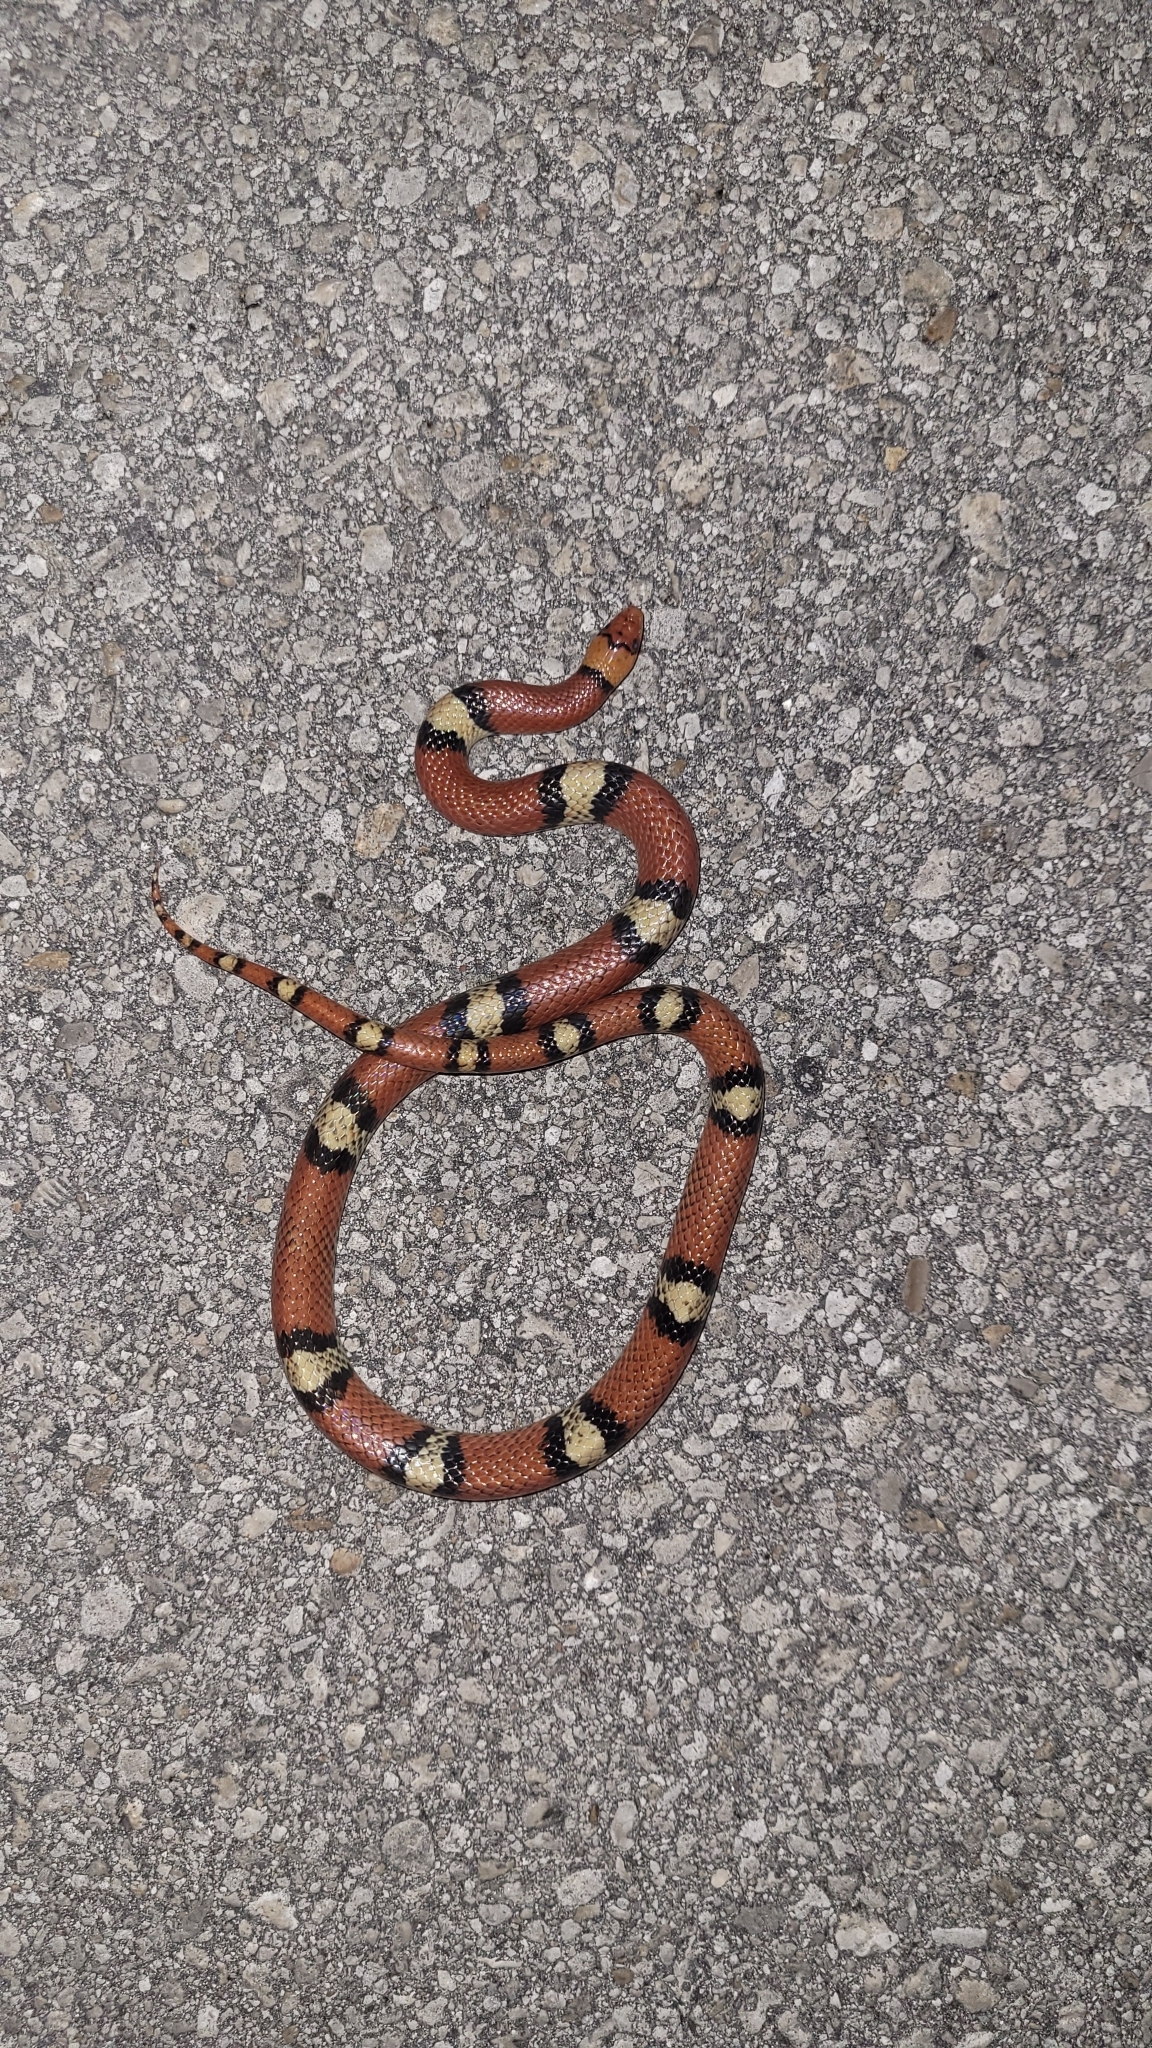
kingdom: Animalia
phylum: Chordata
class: Squamata
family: Colubridae
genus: Cemophora
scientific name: Cemophora coccinea
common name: Scarlet snake
